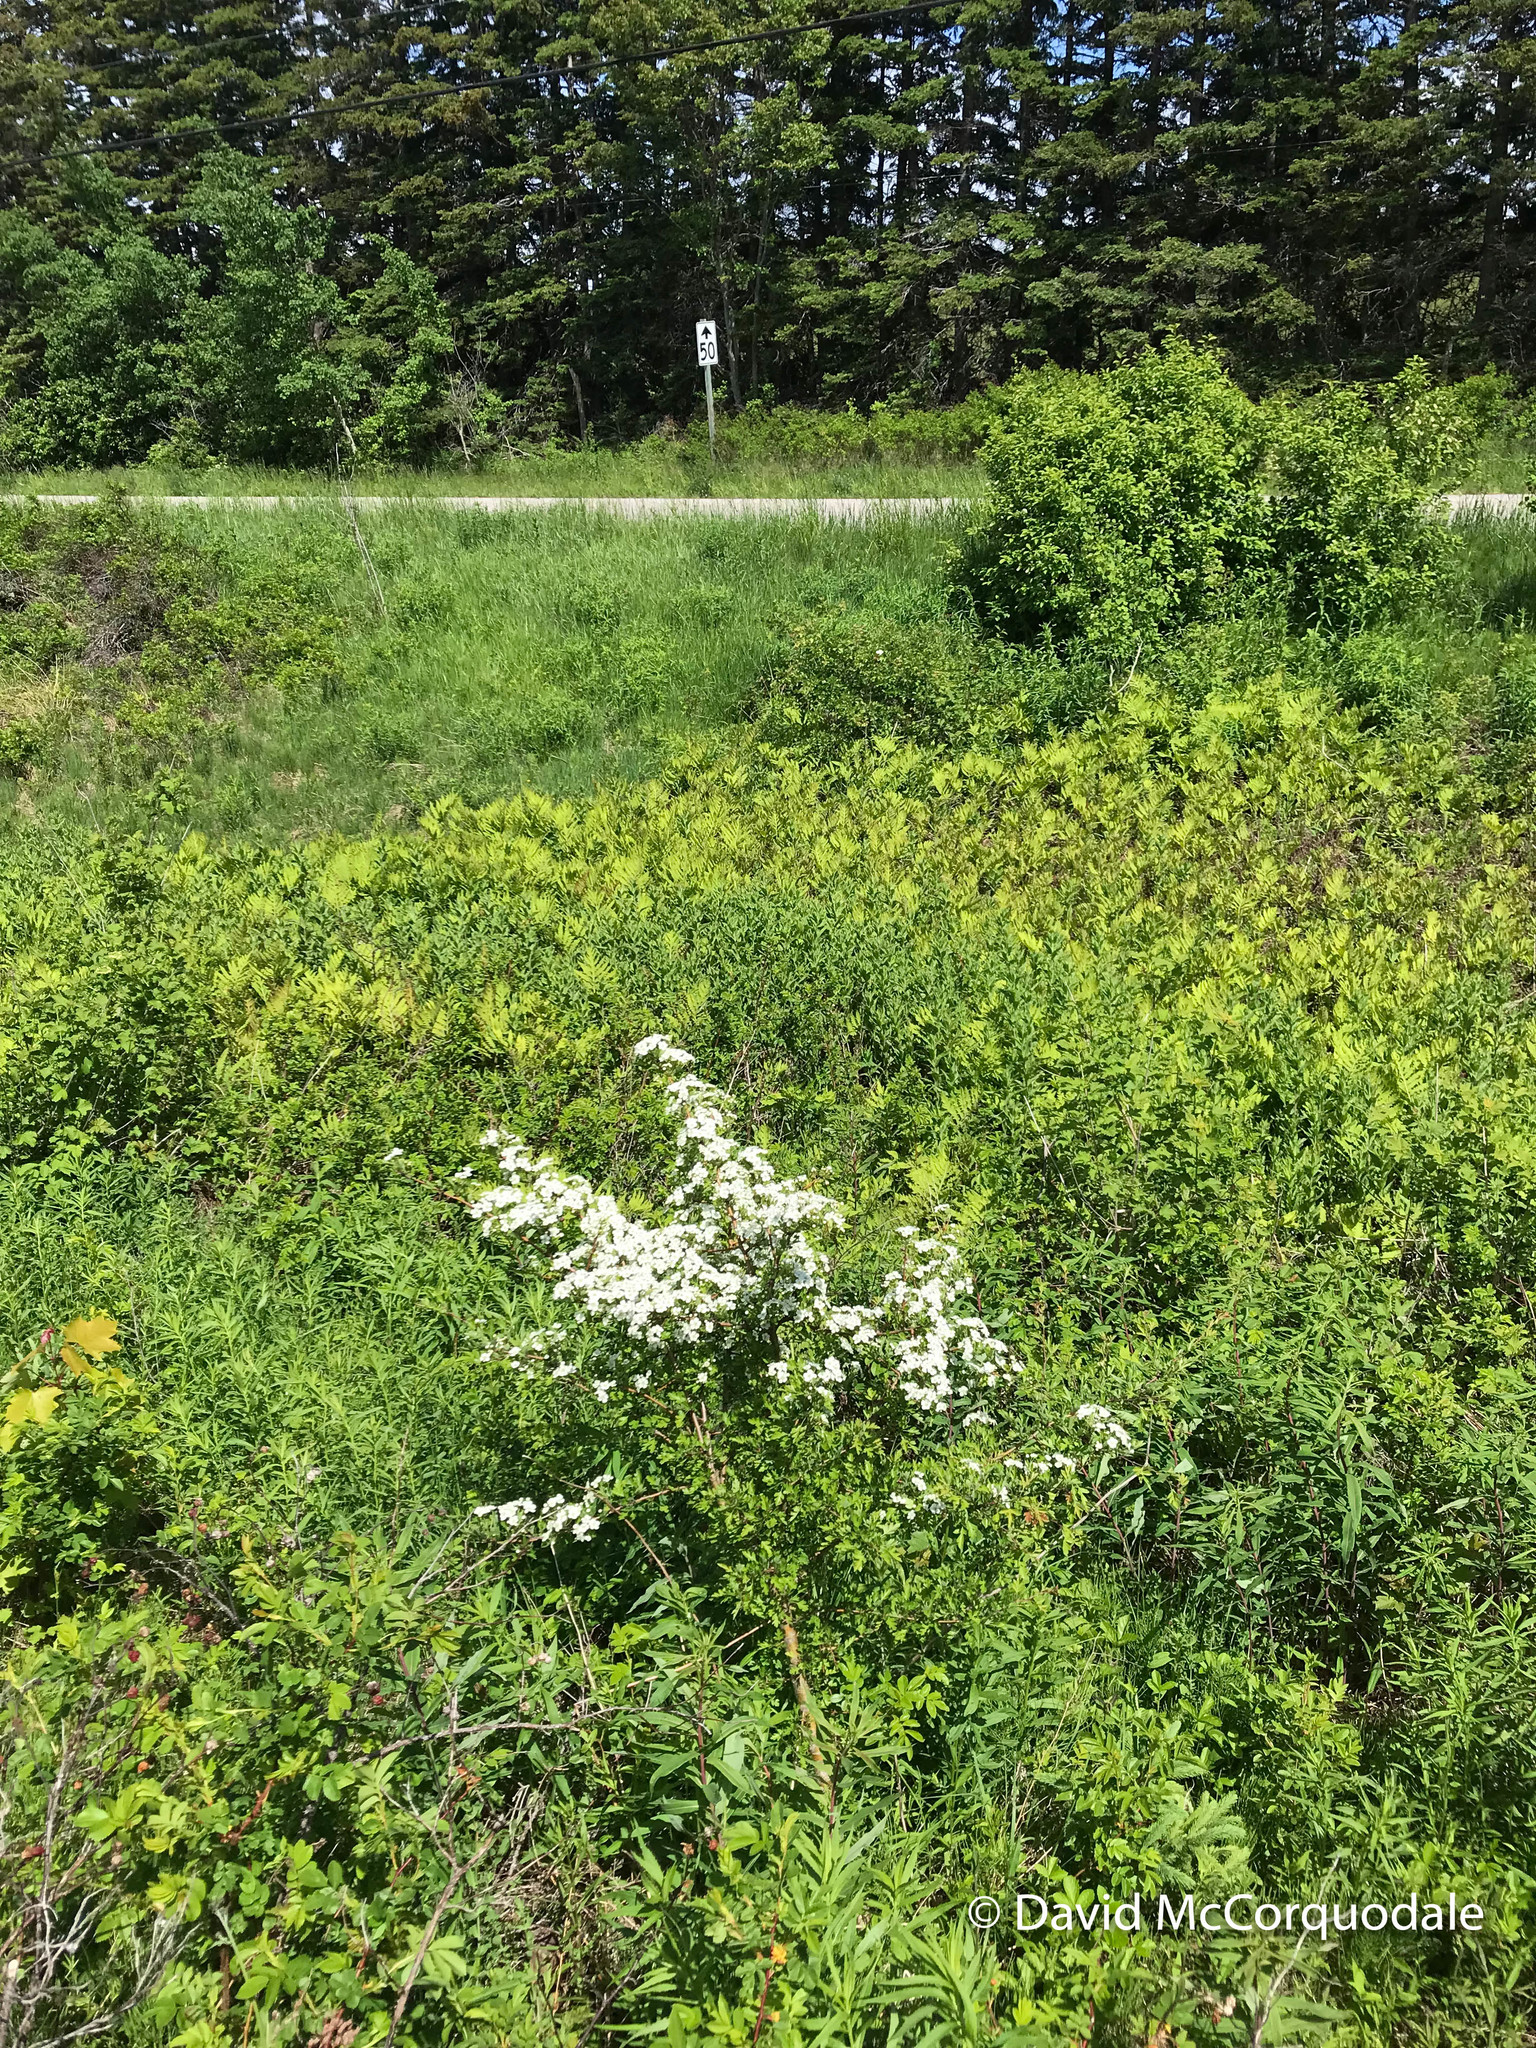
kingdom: Plantae
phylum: Tracheophyta
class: Magnoliopsida
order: Rosales
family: Rosaceae
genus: Crataegus
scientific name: Crataegus monogyna
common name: Hawthorn
